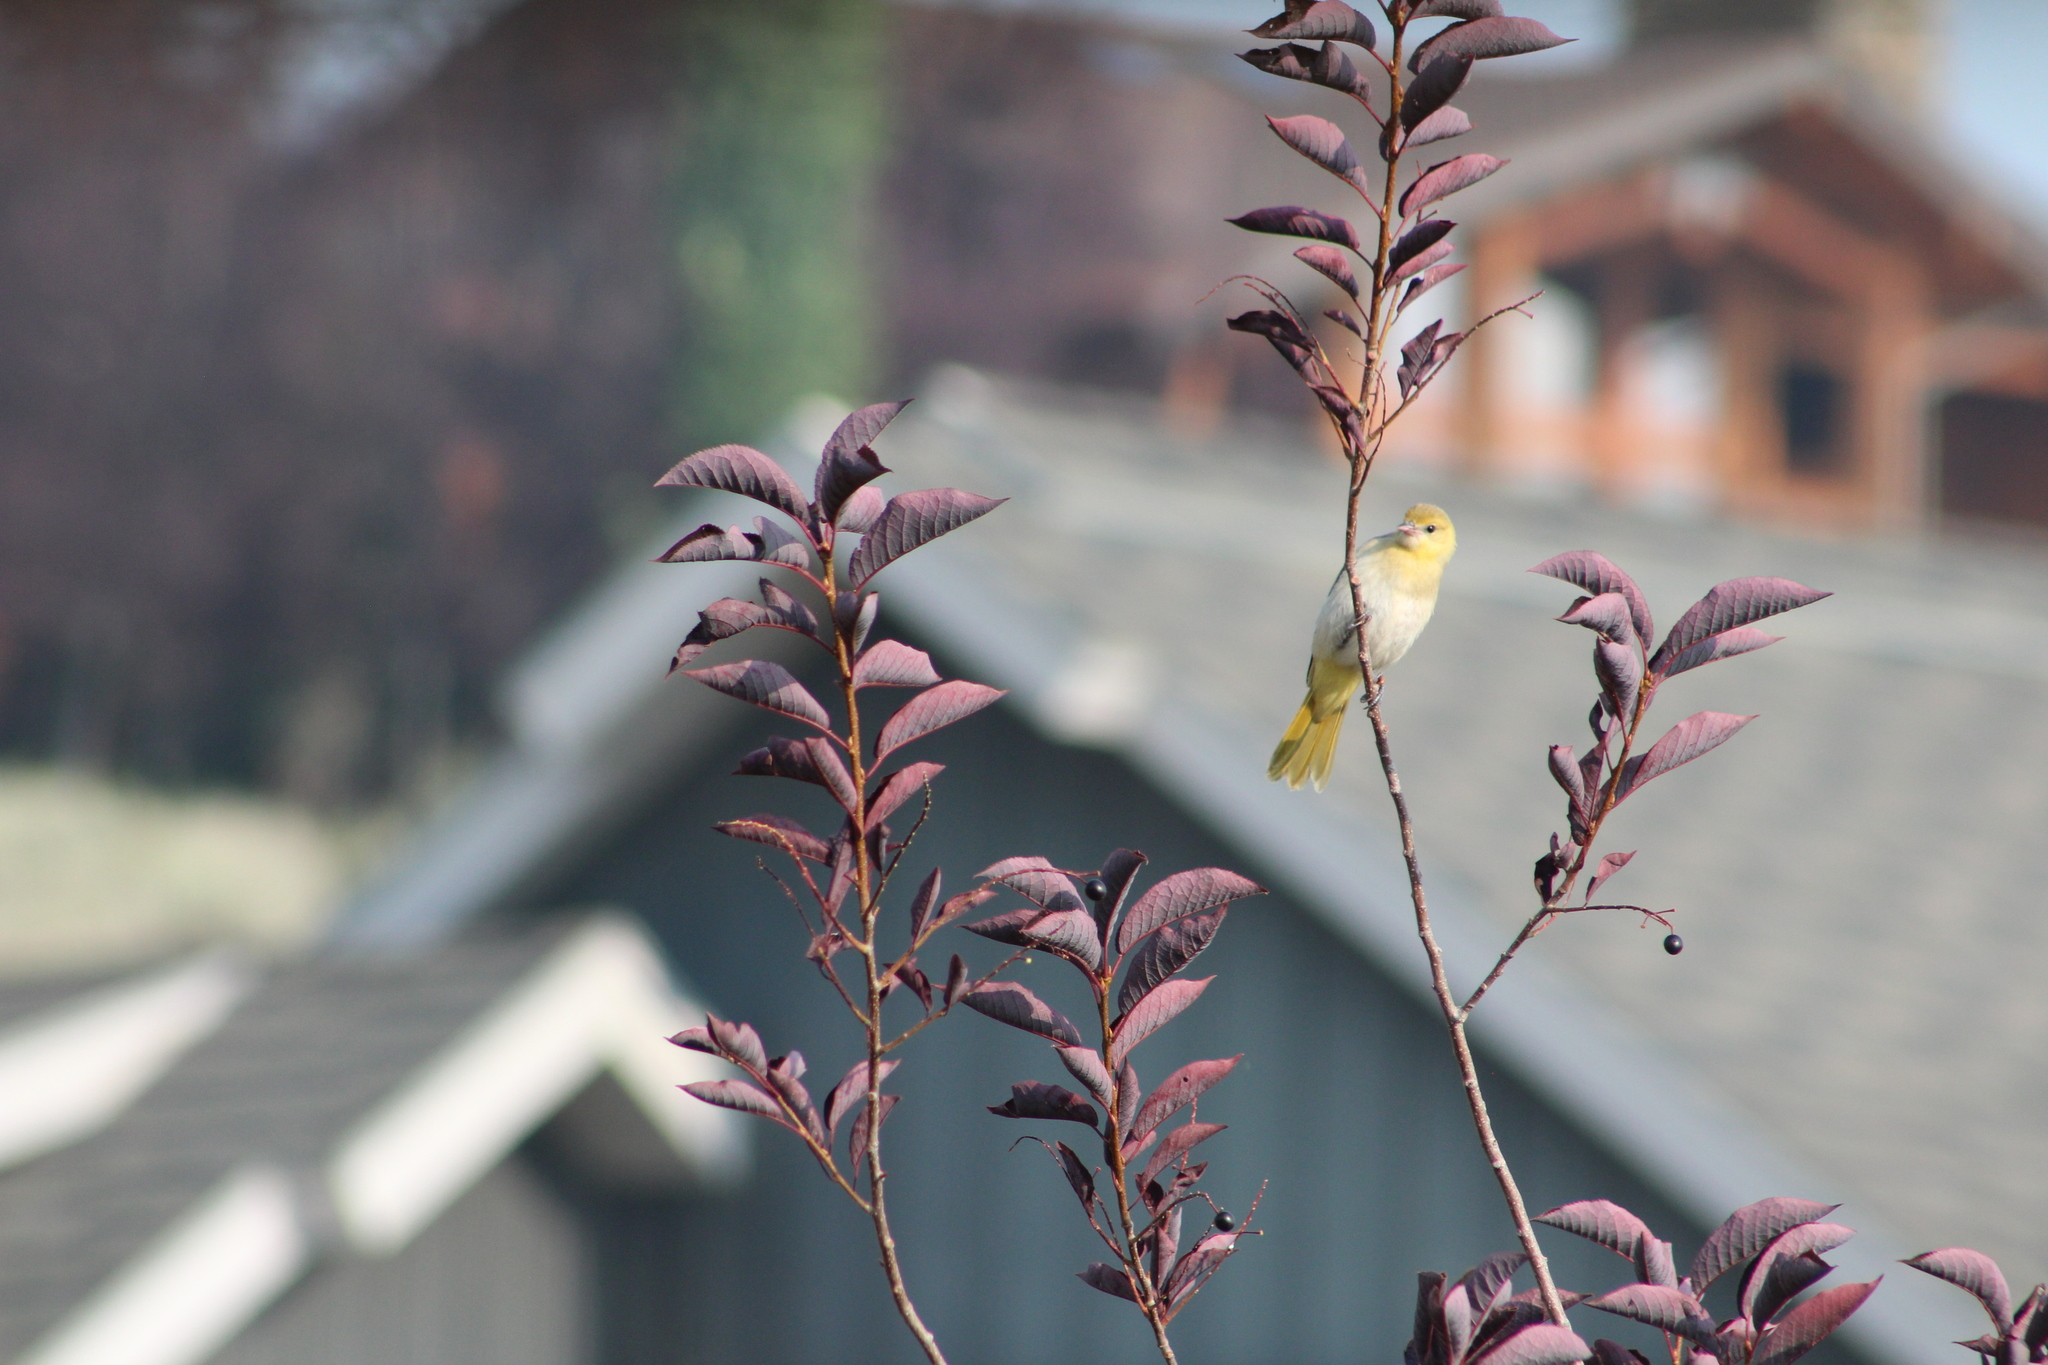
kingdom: Animalia
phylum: Chordata
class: Aves
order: Passeriformes
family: Icteridae
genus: Icterus
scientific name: Icterus bullockii
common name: Bullock's oriole
